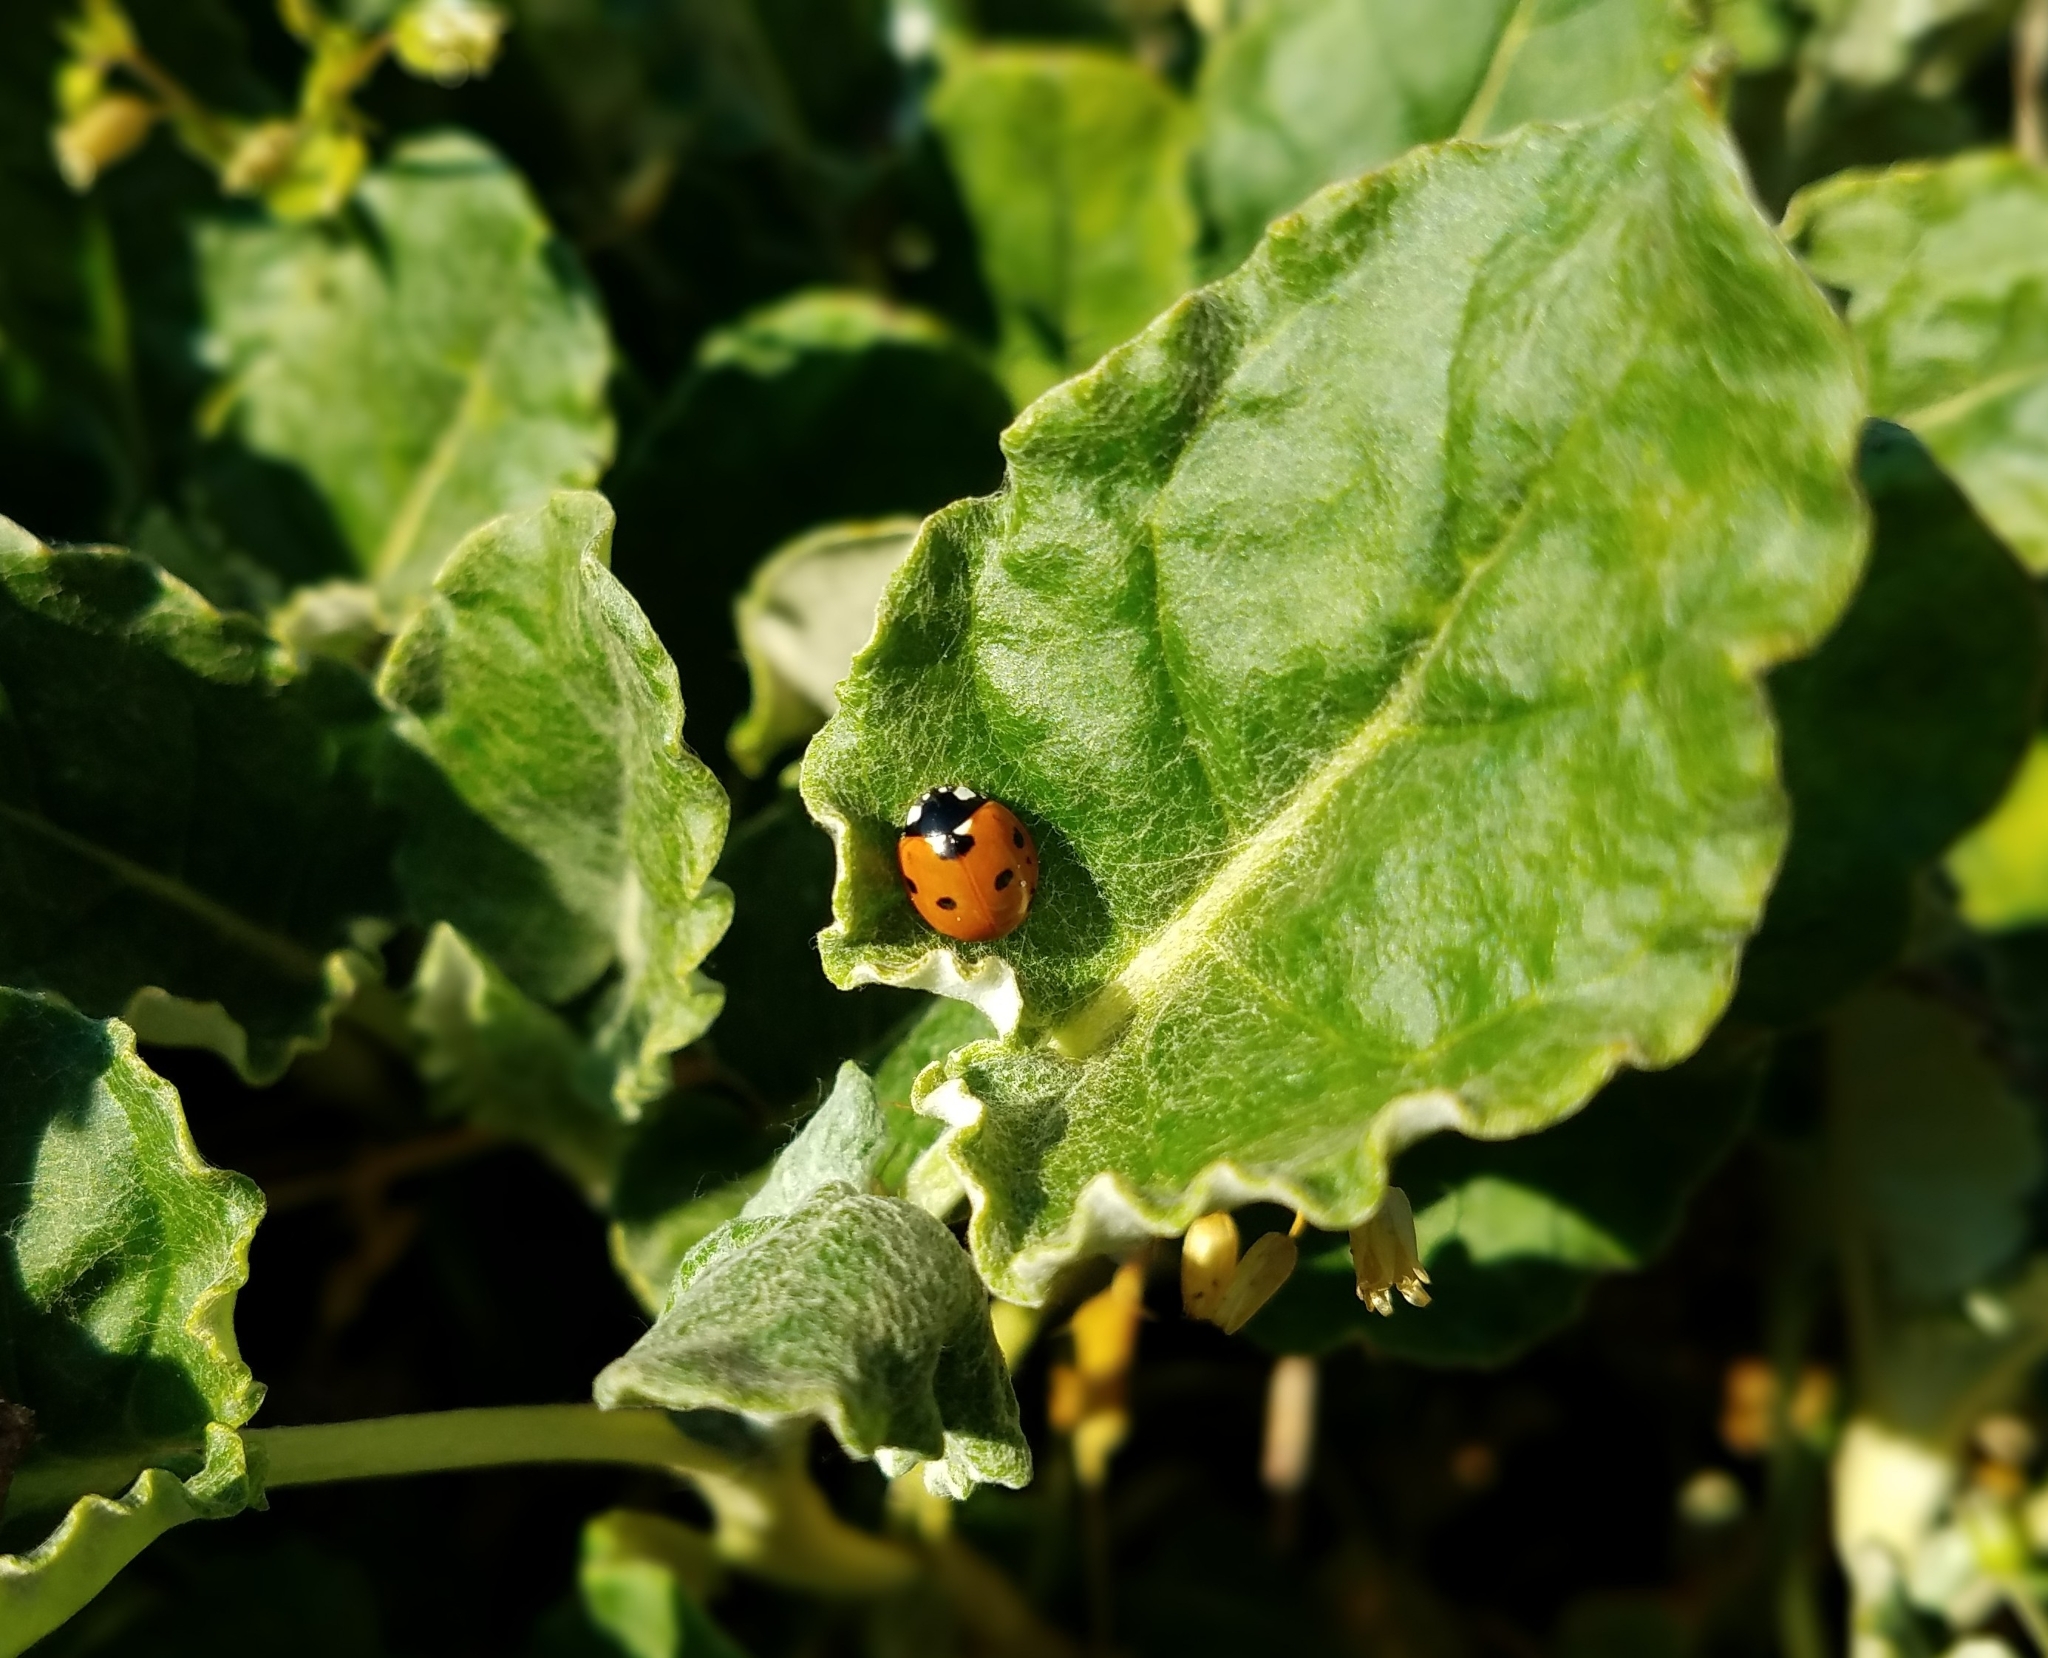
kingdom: Animalia
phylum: Arthropoda
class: Insecta
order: Coleoptera
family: Coccinellidae
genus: Coccinella
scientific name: Coccinella septempunctata
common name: Sevenspotted lady beetle
